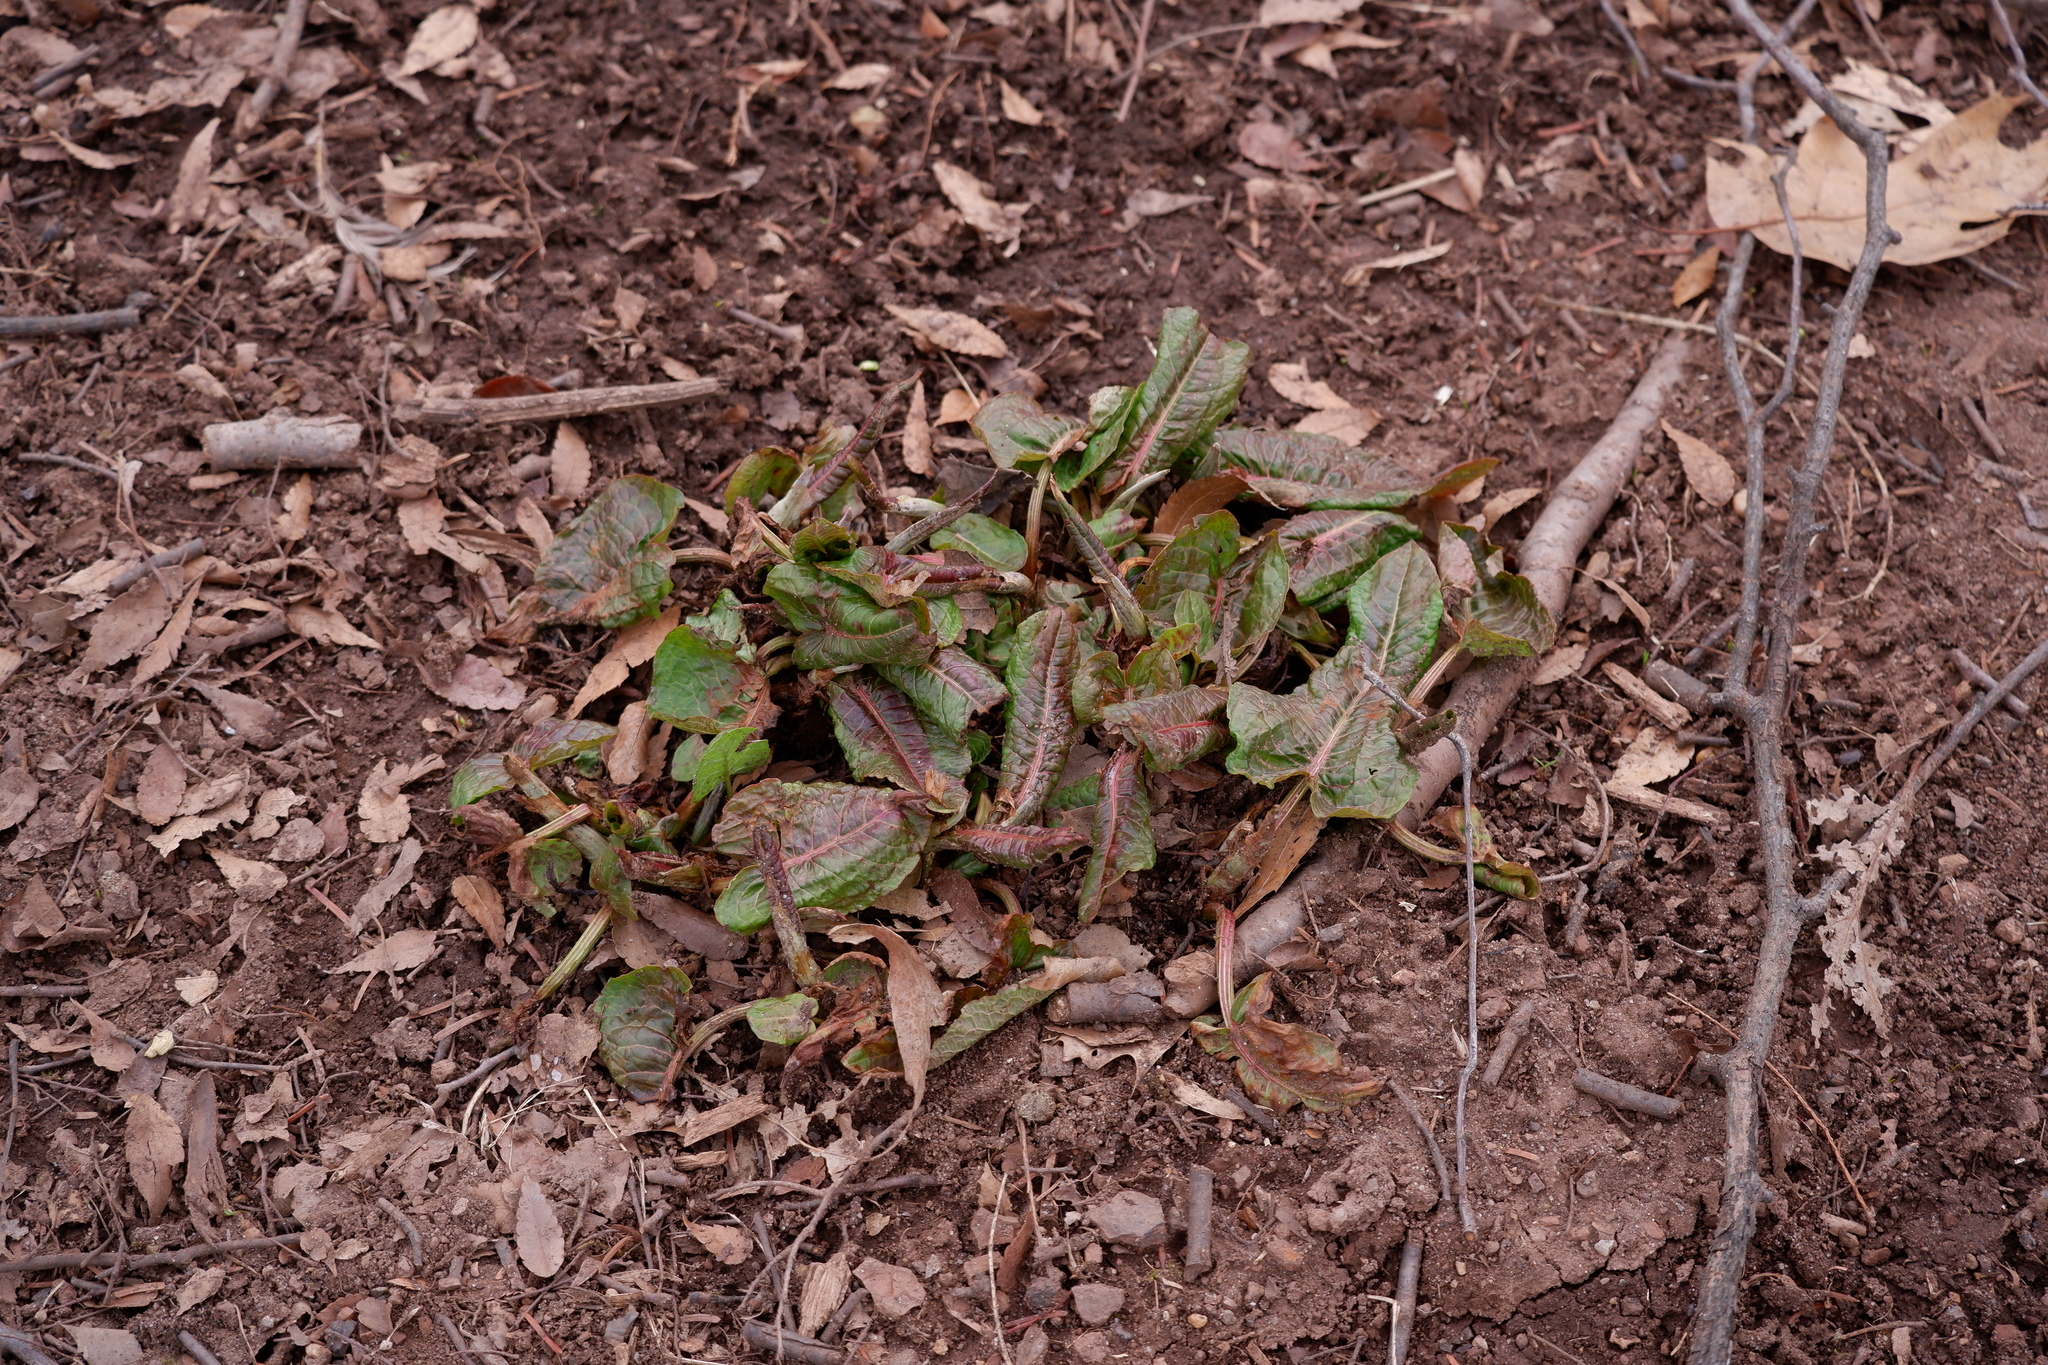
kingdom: Plantae
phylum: Tracheophyta
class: Magnoliopsida
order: Caryophyllales
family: Polygonaceae
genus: Rumex
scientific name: Rumex obtusifolius
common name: Bitter dock
